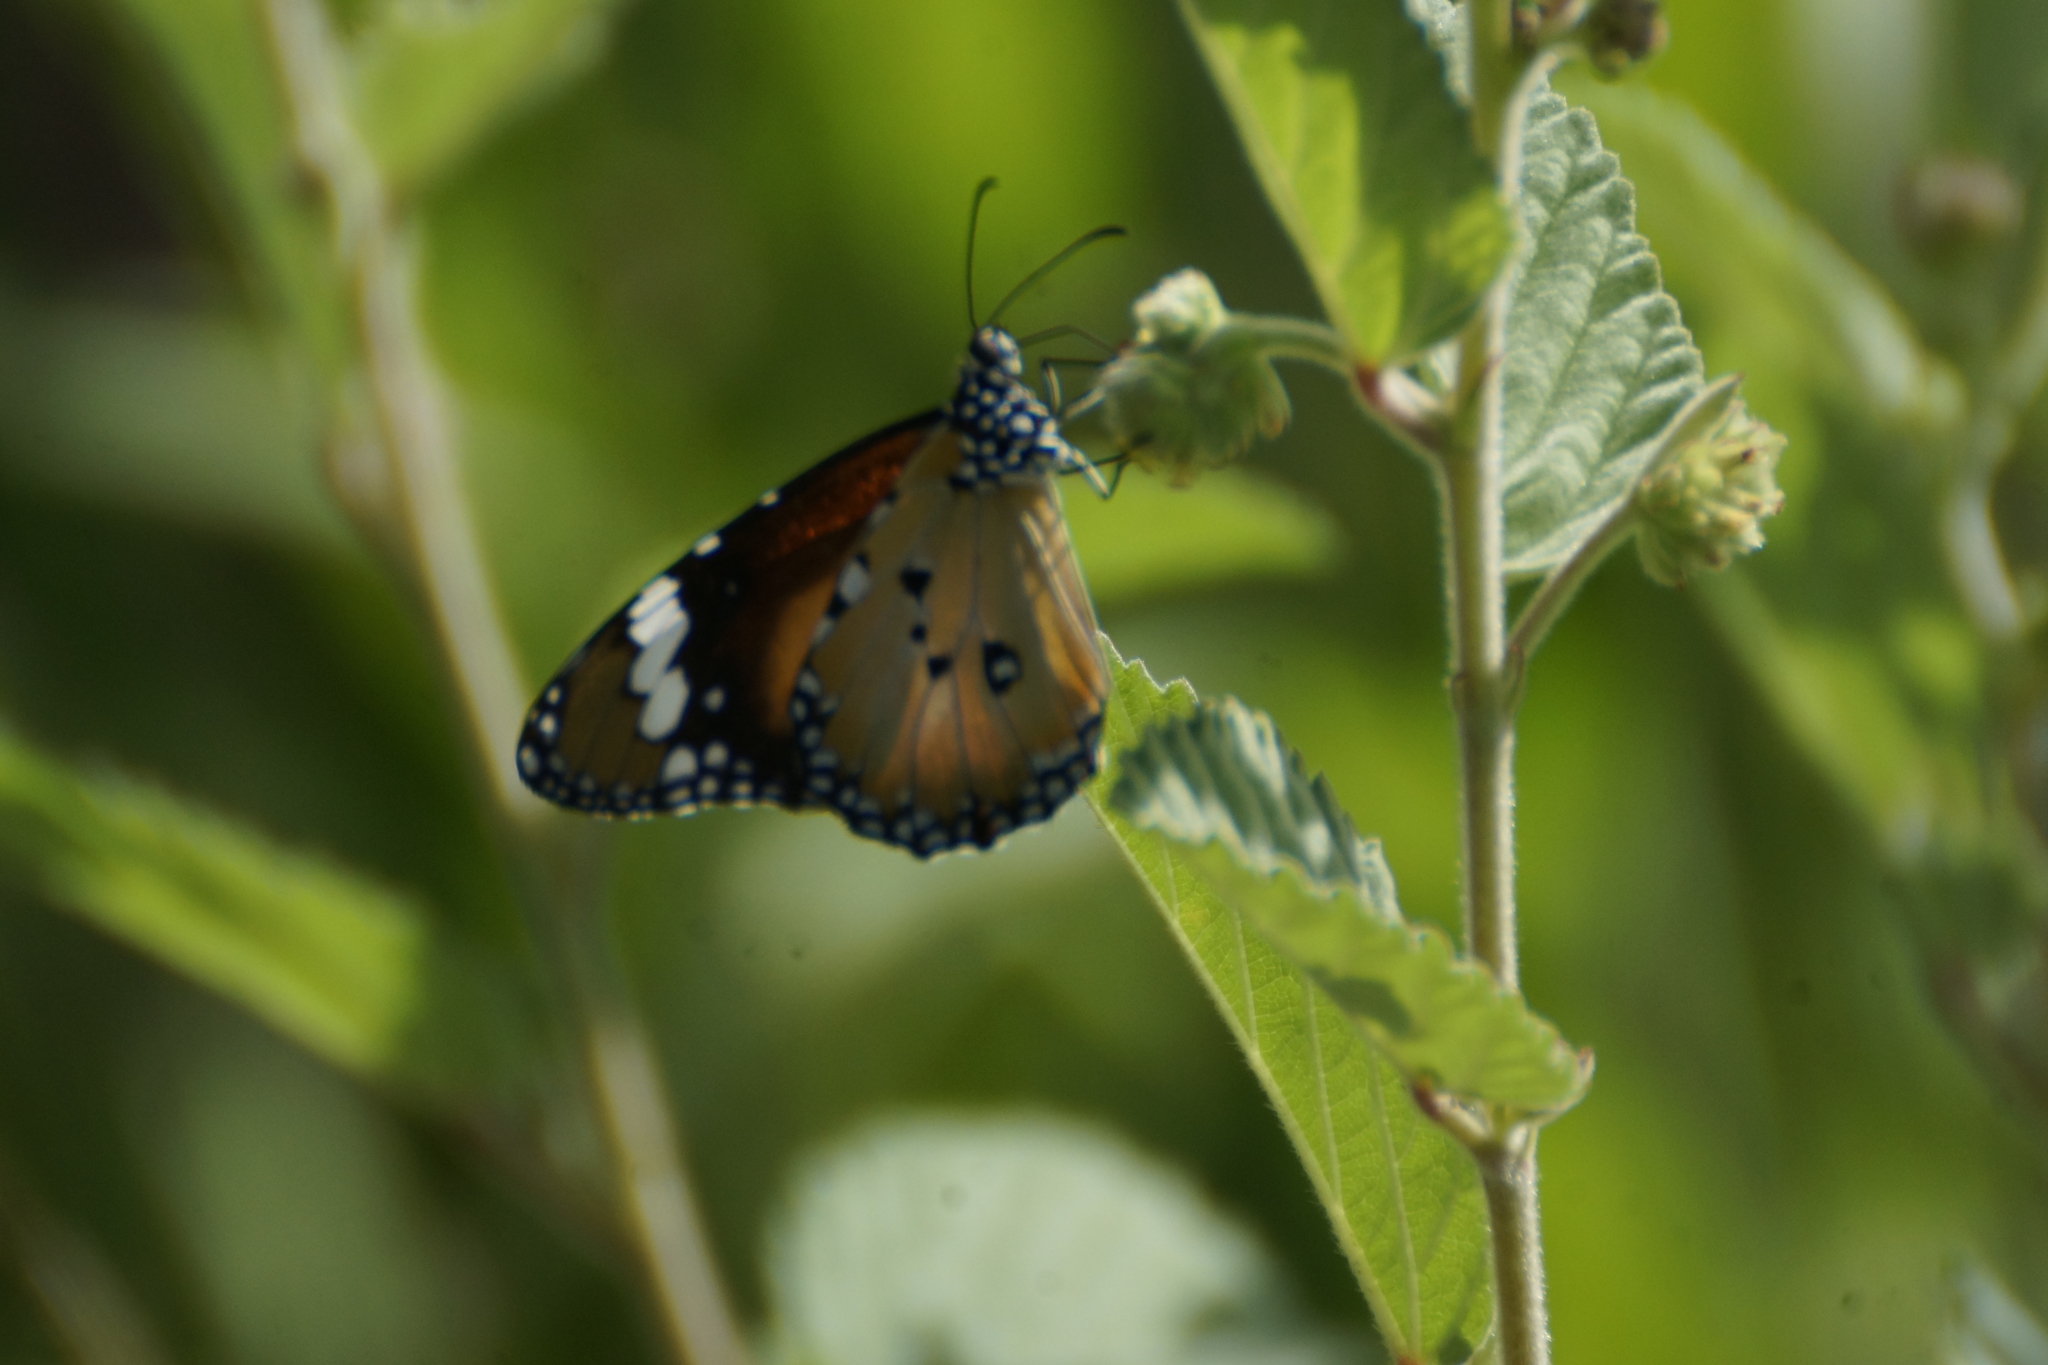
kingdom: Animalia
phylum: Arthropoda
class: Insecta
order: Lepidoptera
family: Nymphalidae
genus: Danaus
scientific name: Danaus chrysippus
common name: Plain tiger
